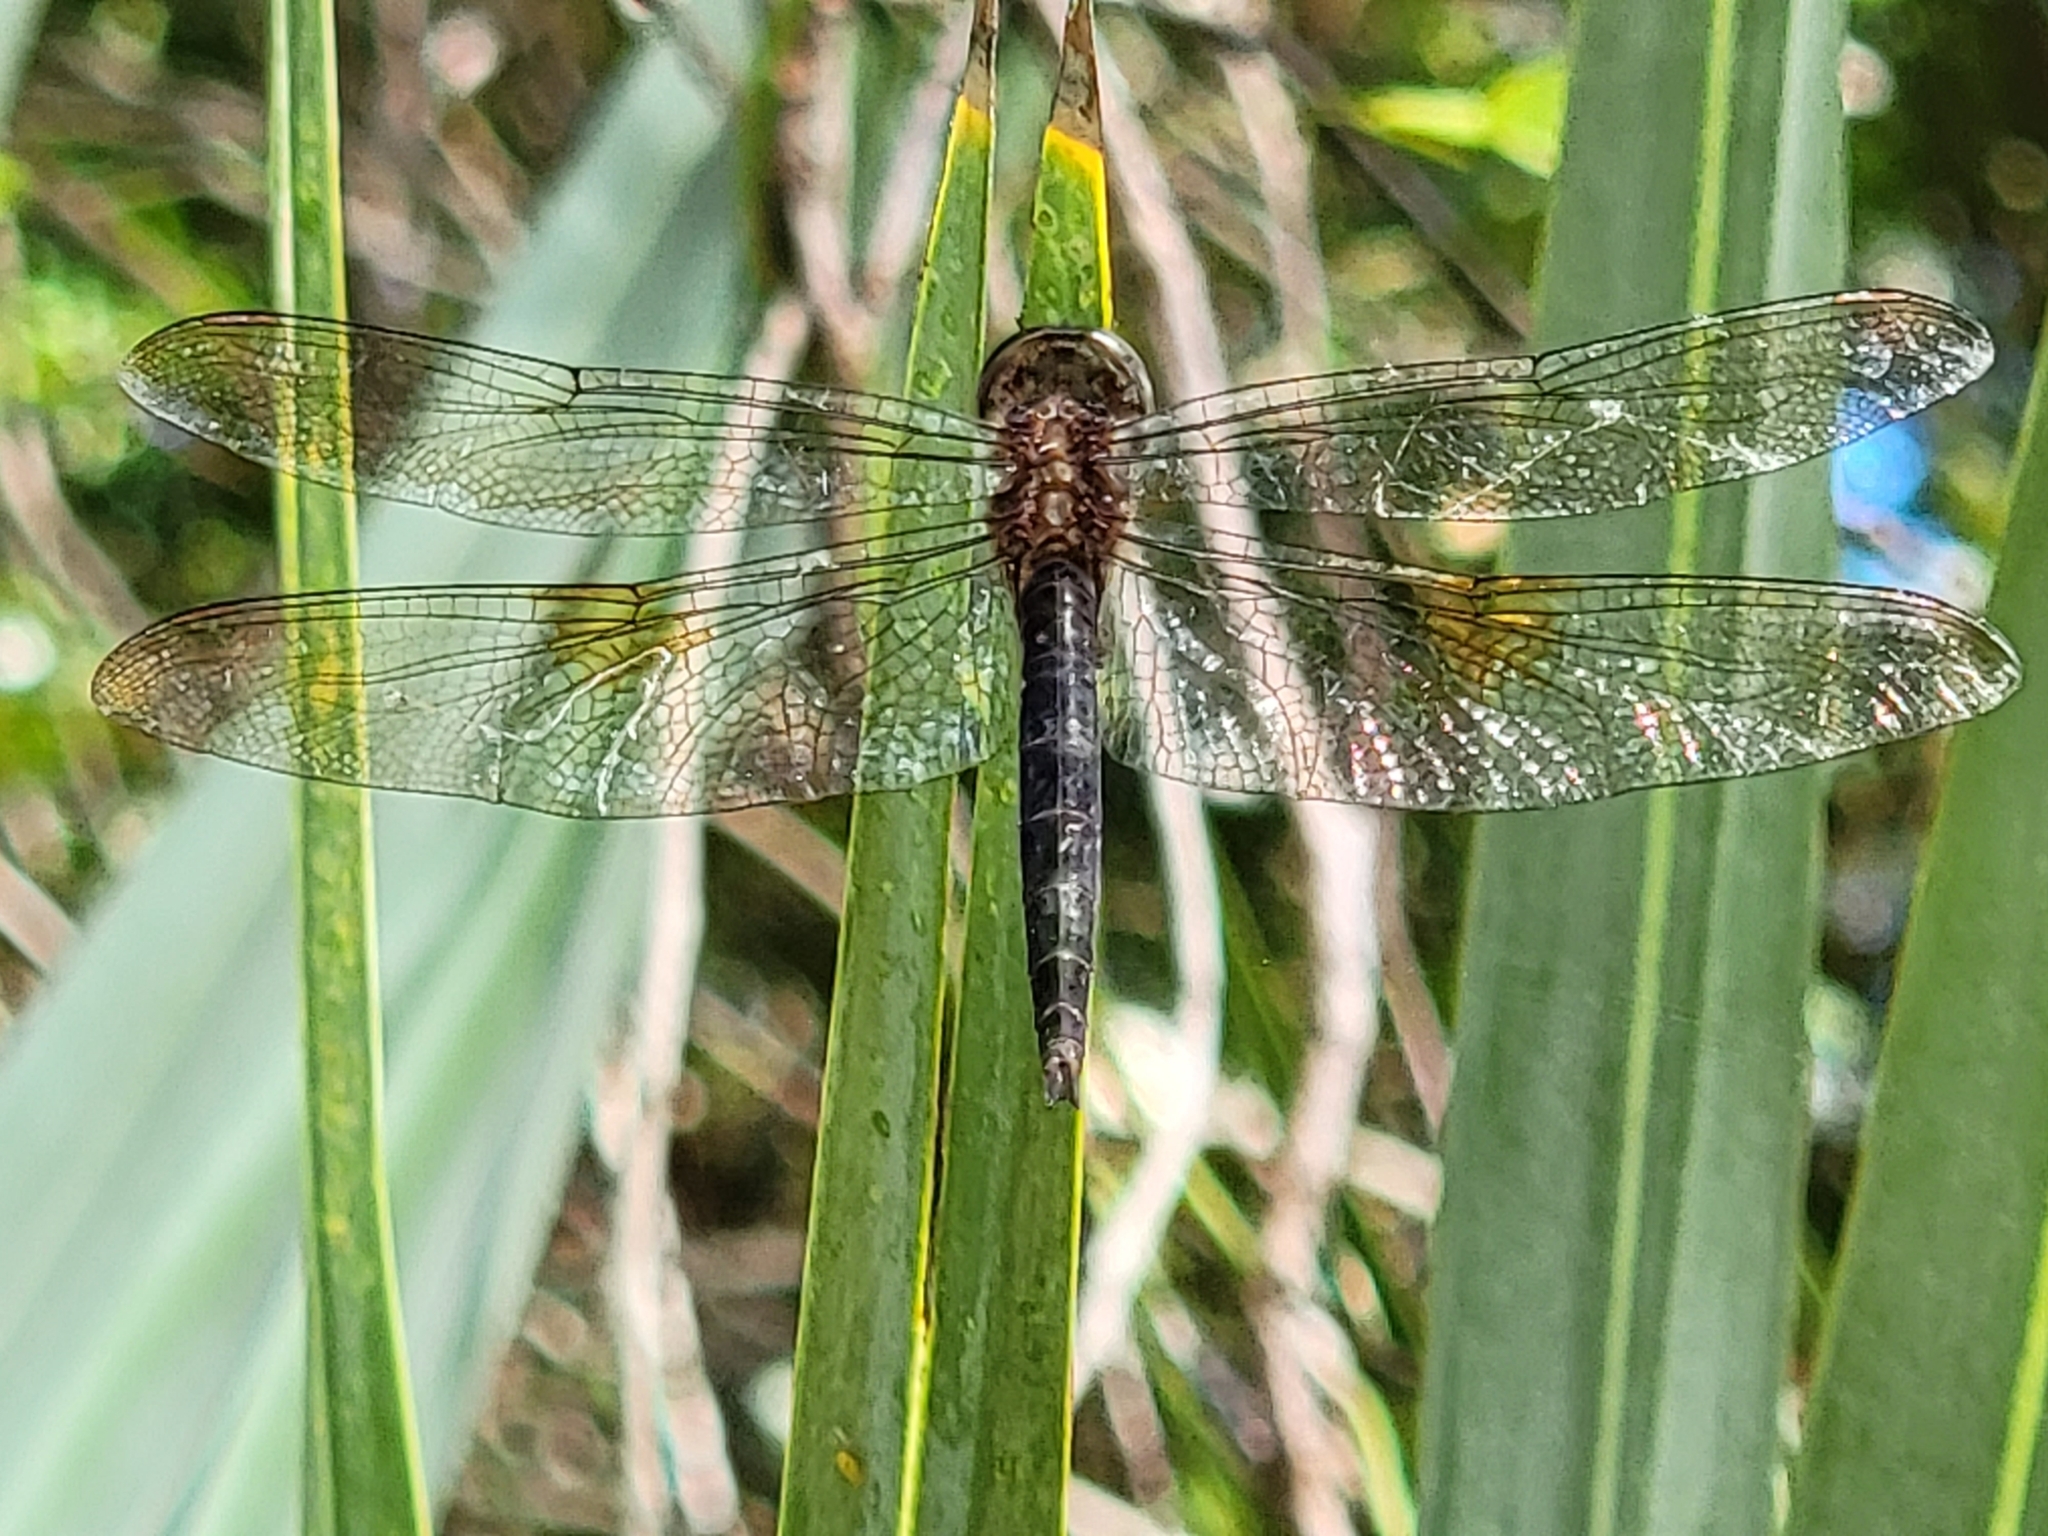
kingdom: Animalia
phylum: Arthropoda
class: Insecta
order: Odonata
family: Libellulidae
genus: Tholymis
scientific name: Tholymis citrina
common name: Evening skimmer
